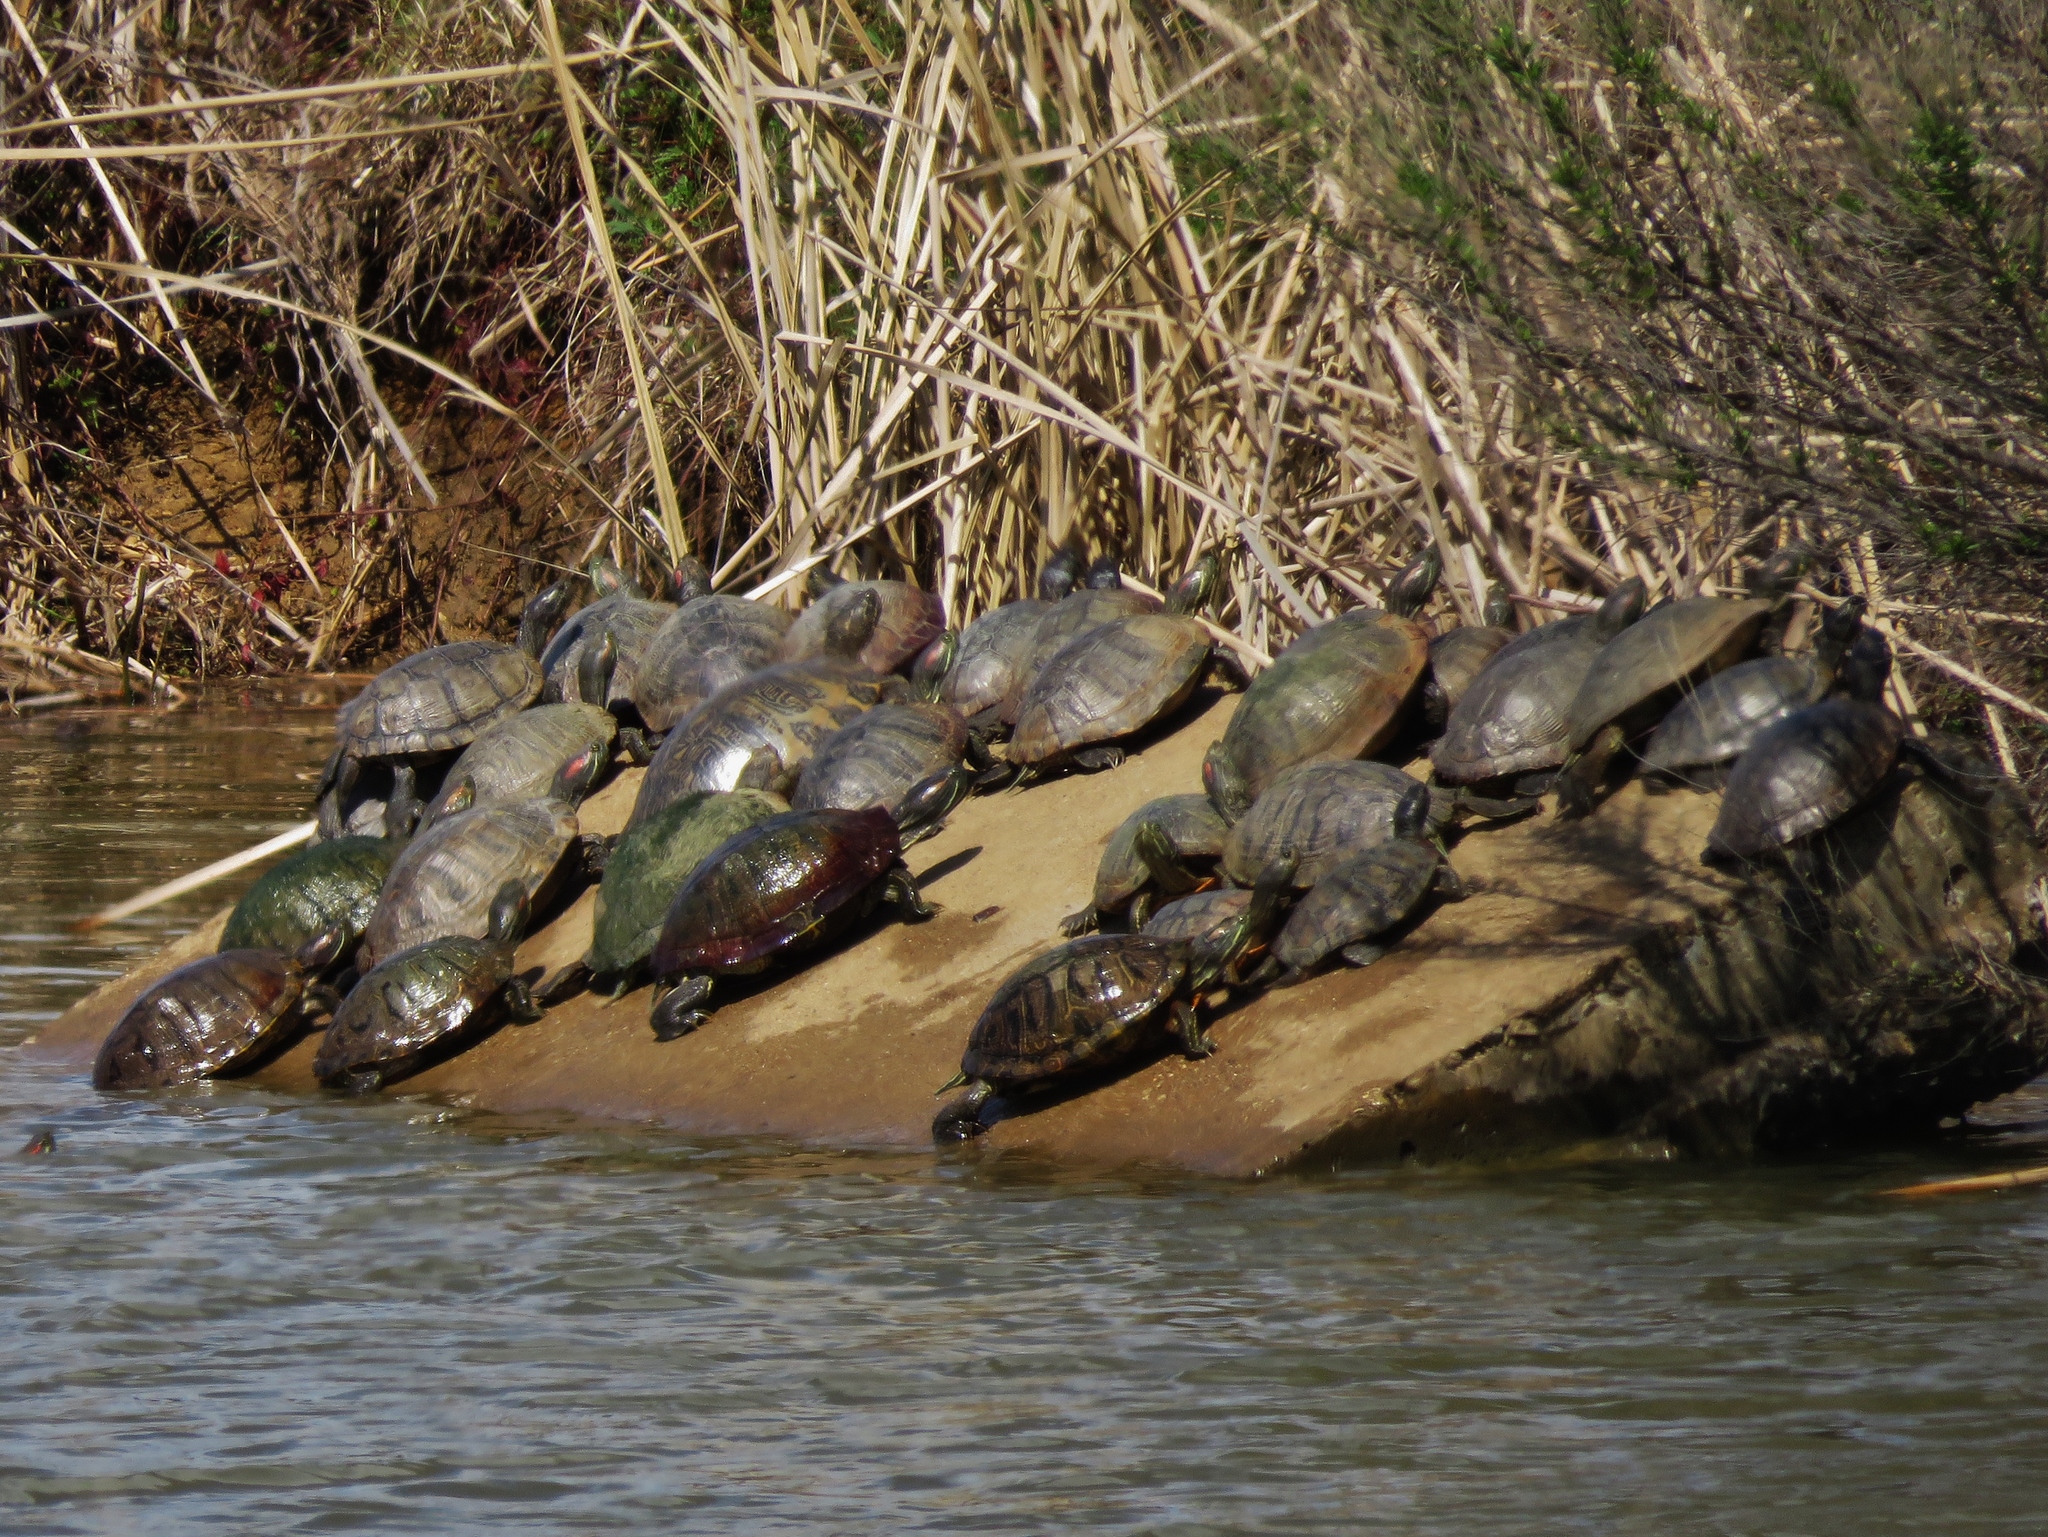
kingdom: Animalia
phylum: Chordata
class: Testudines
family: Emydidae
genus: Trachemys
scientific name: Trachemys scripta
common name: Slider
